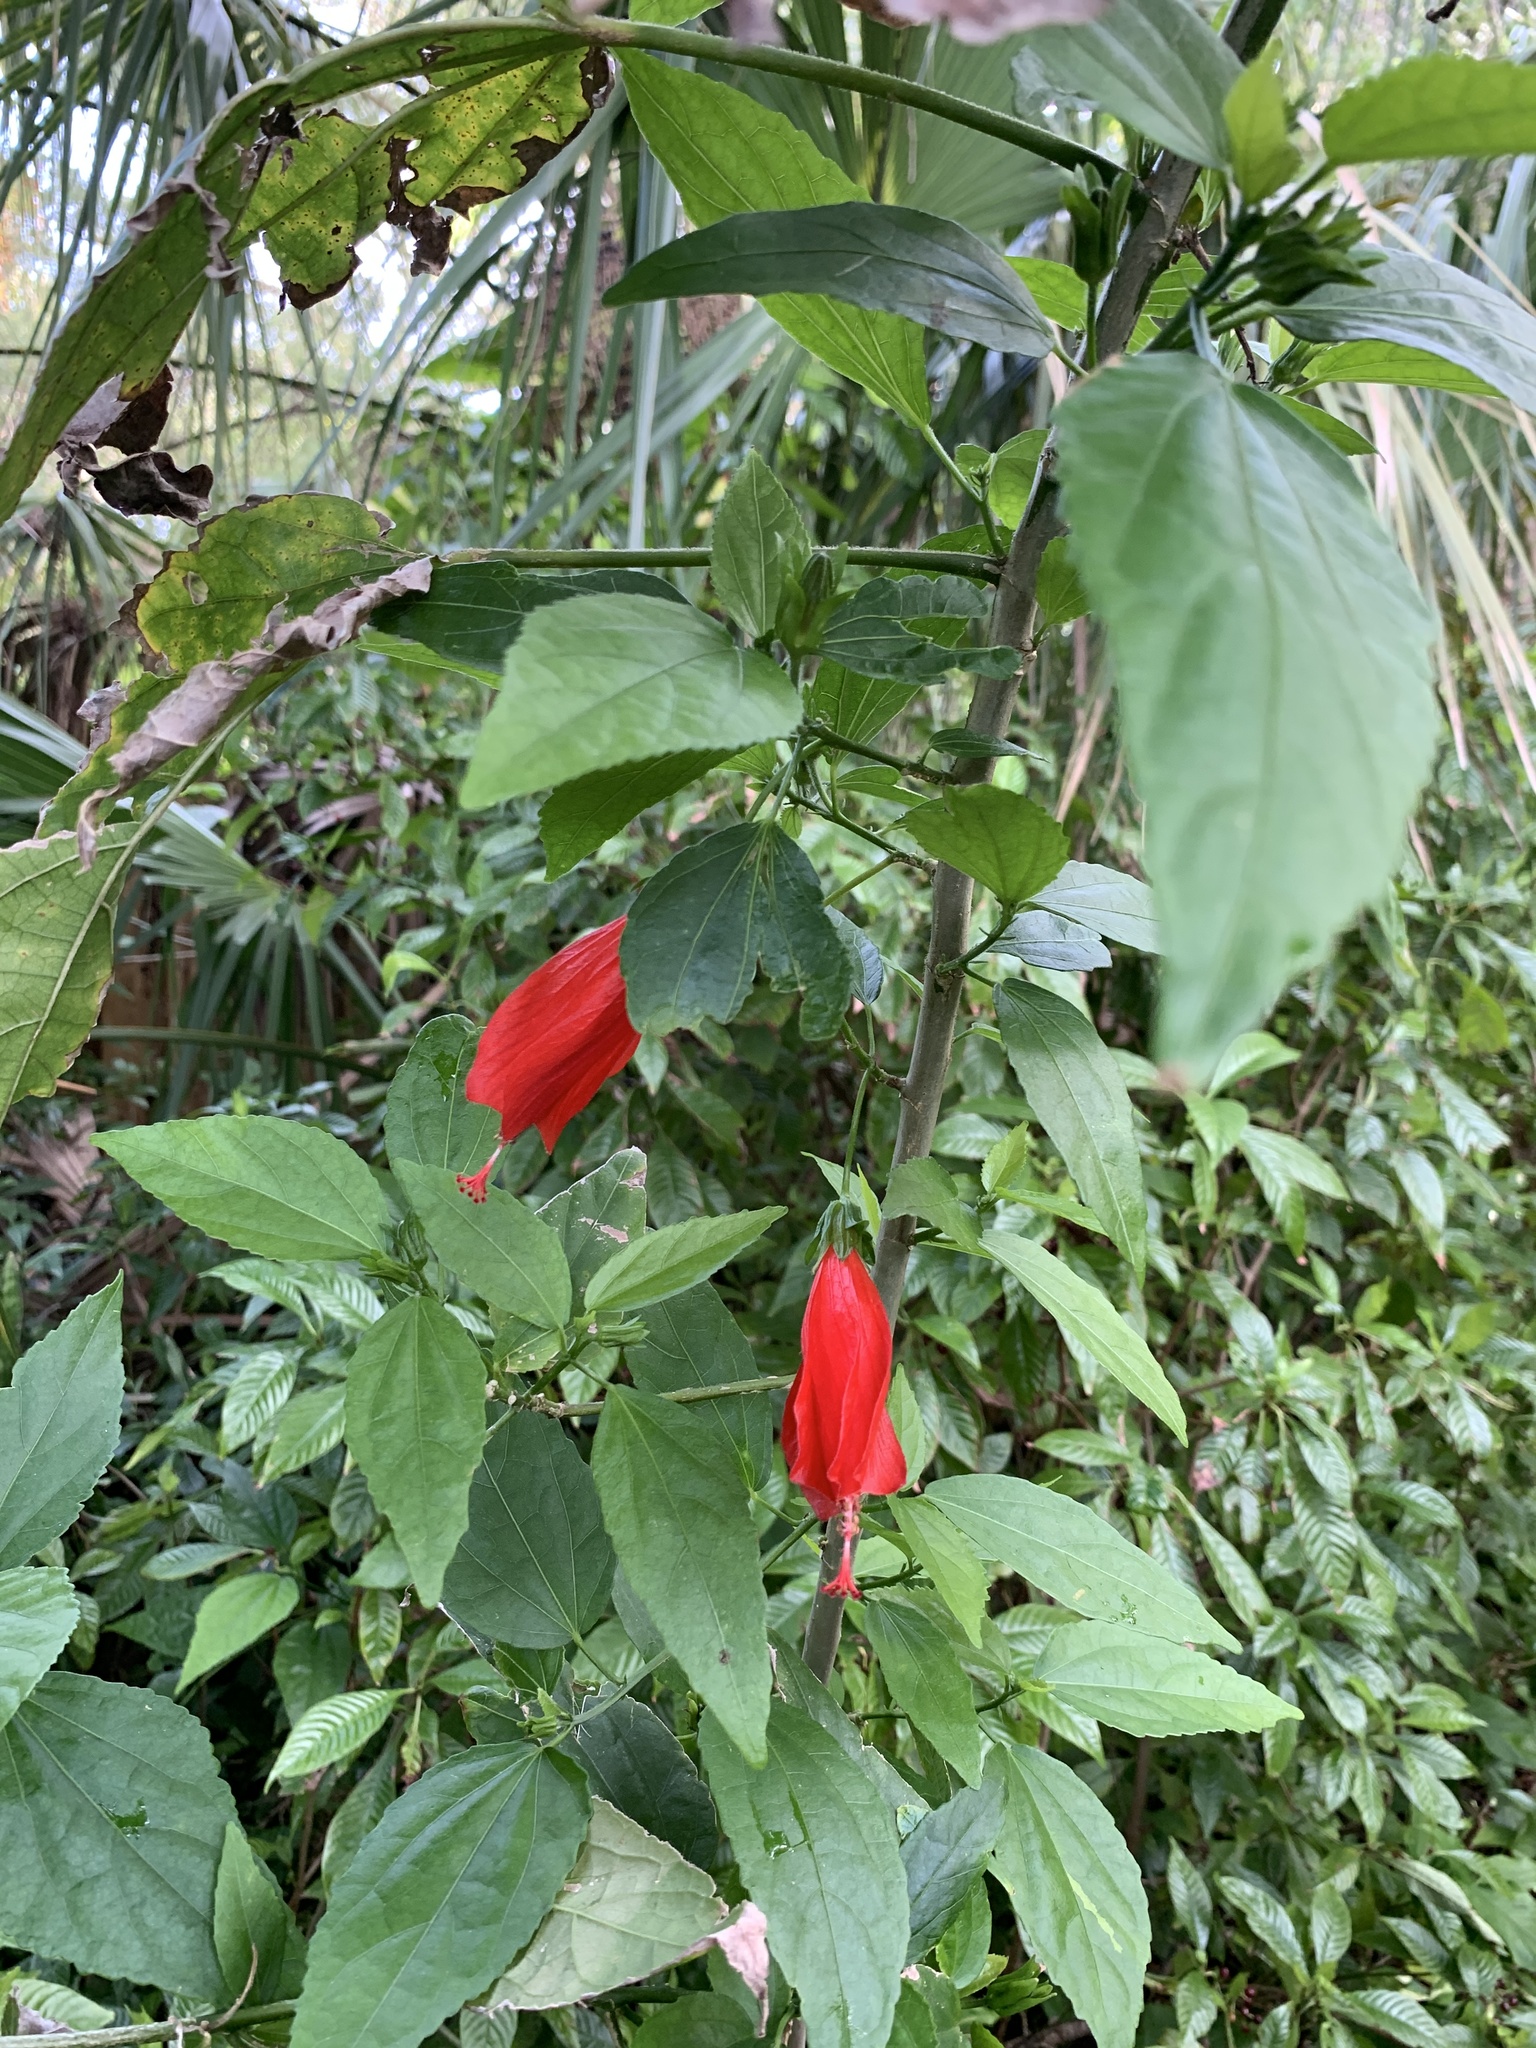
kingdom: Plantae
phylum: Tracheophyta
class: Magnoliopsida
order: Malvales
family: Malvaceae
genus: Malvaviscus
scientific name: Malvaviscus penduliflorus
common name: Mazapan
